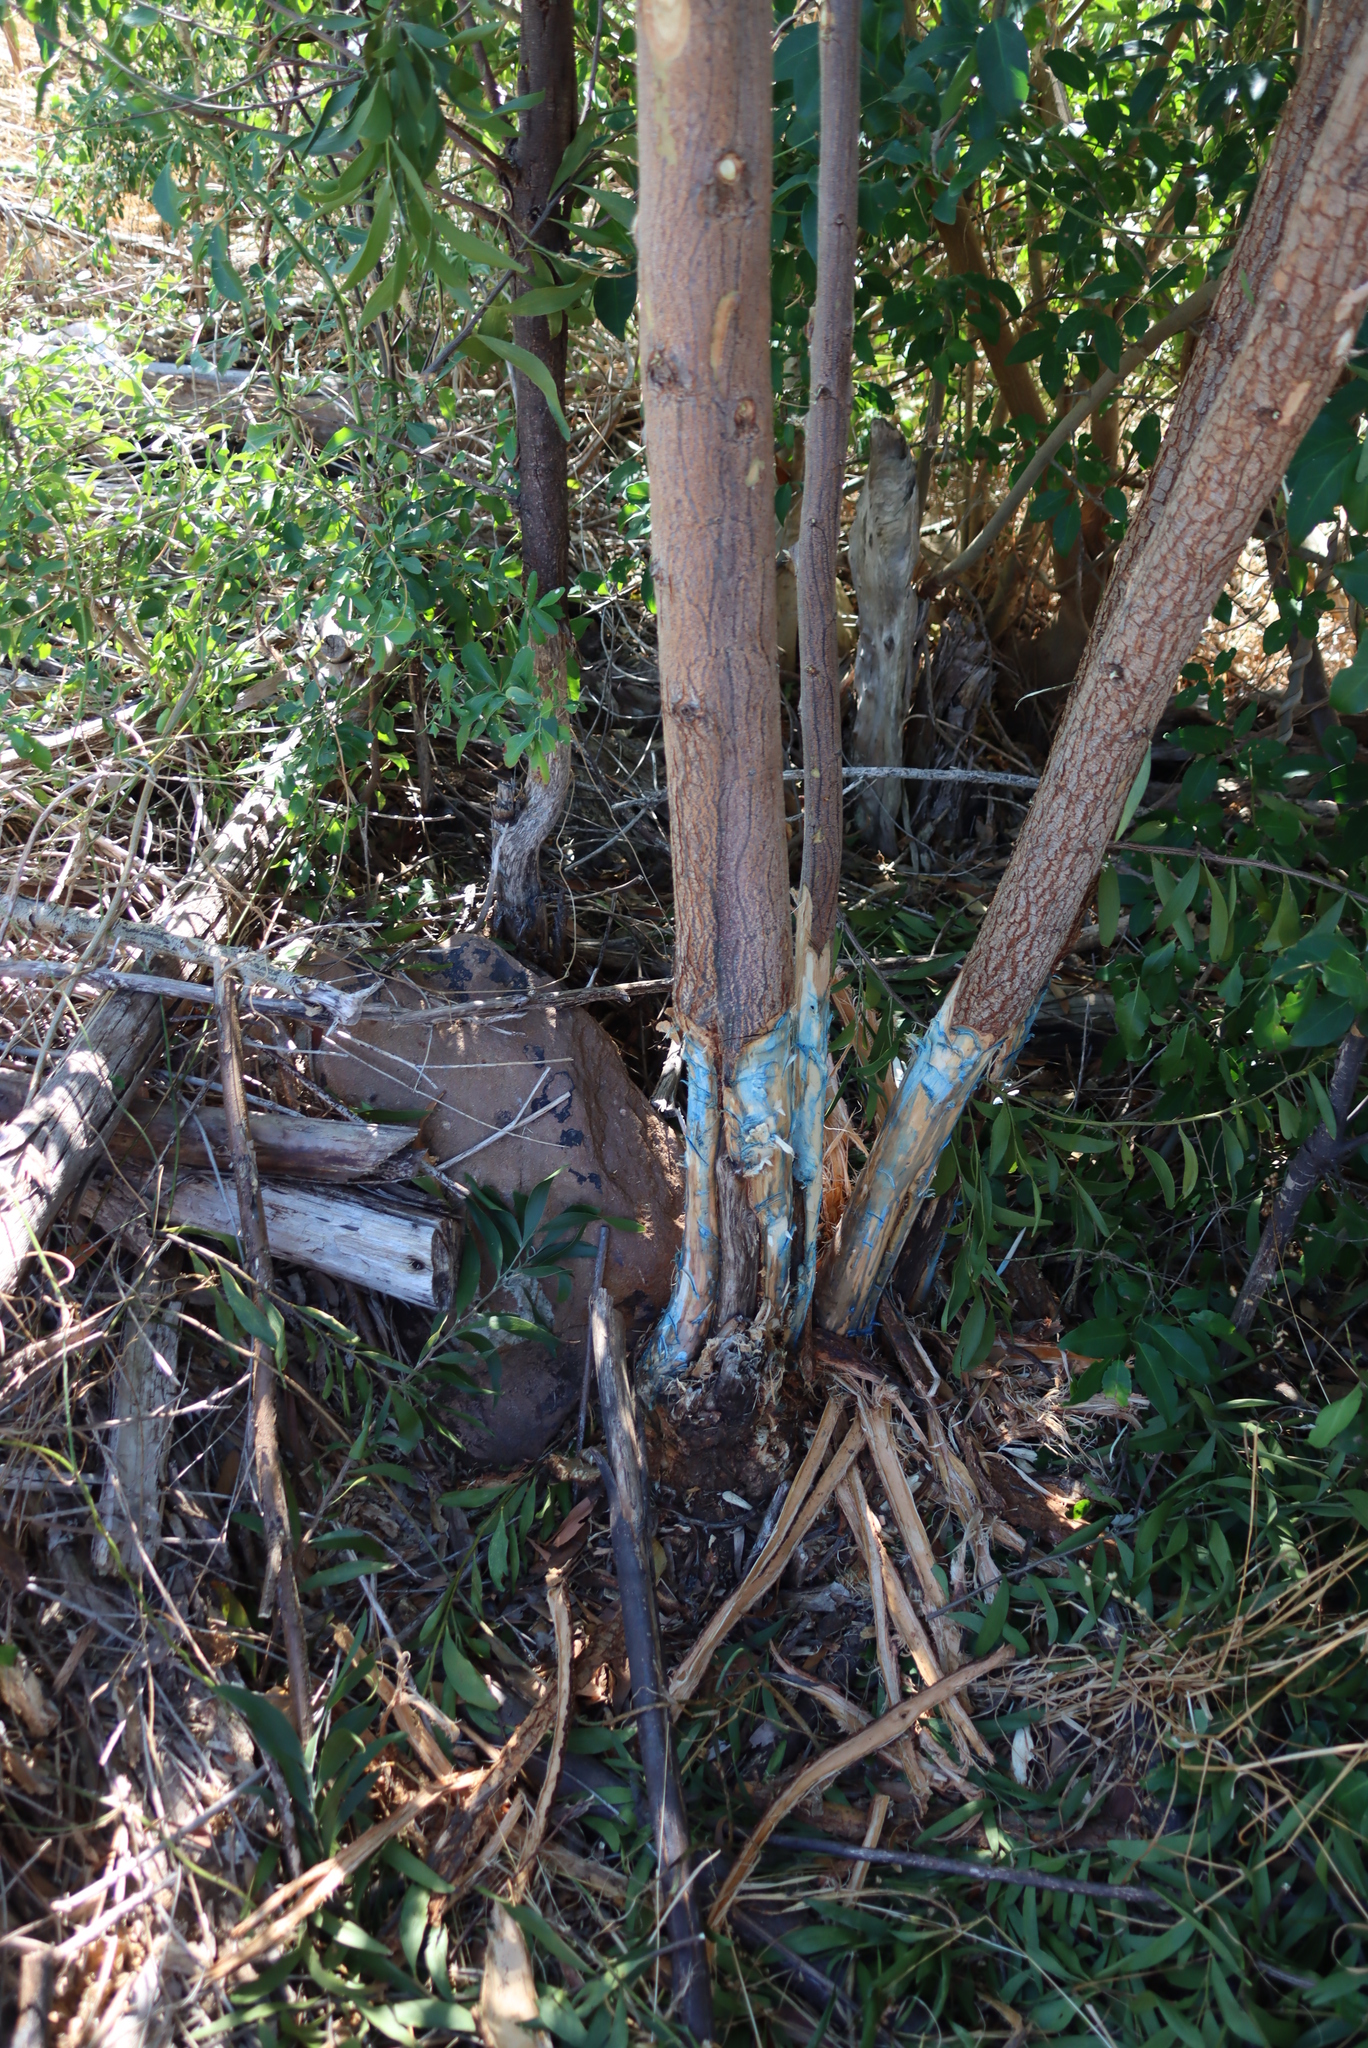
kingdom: Plantae
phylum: Tracheophyta
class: Magnoliopsida
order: Fabales
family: Fabaceae
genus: Acacia
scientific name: Acacia melanoxylon
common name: Blackwood
